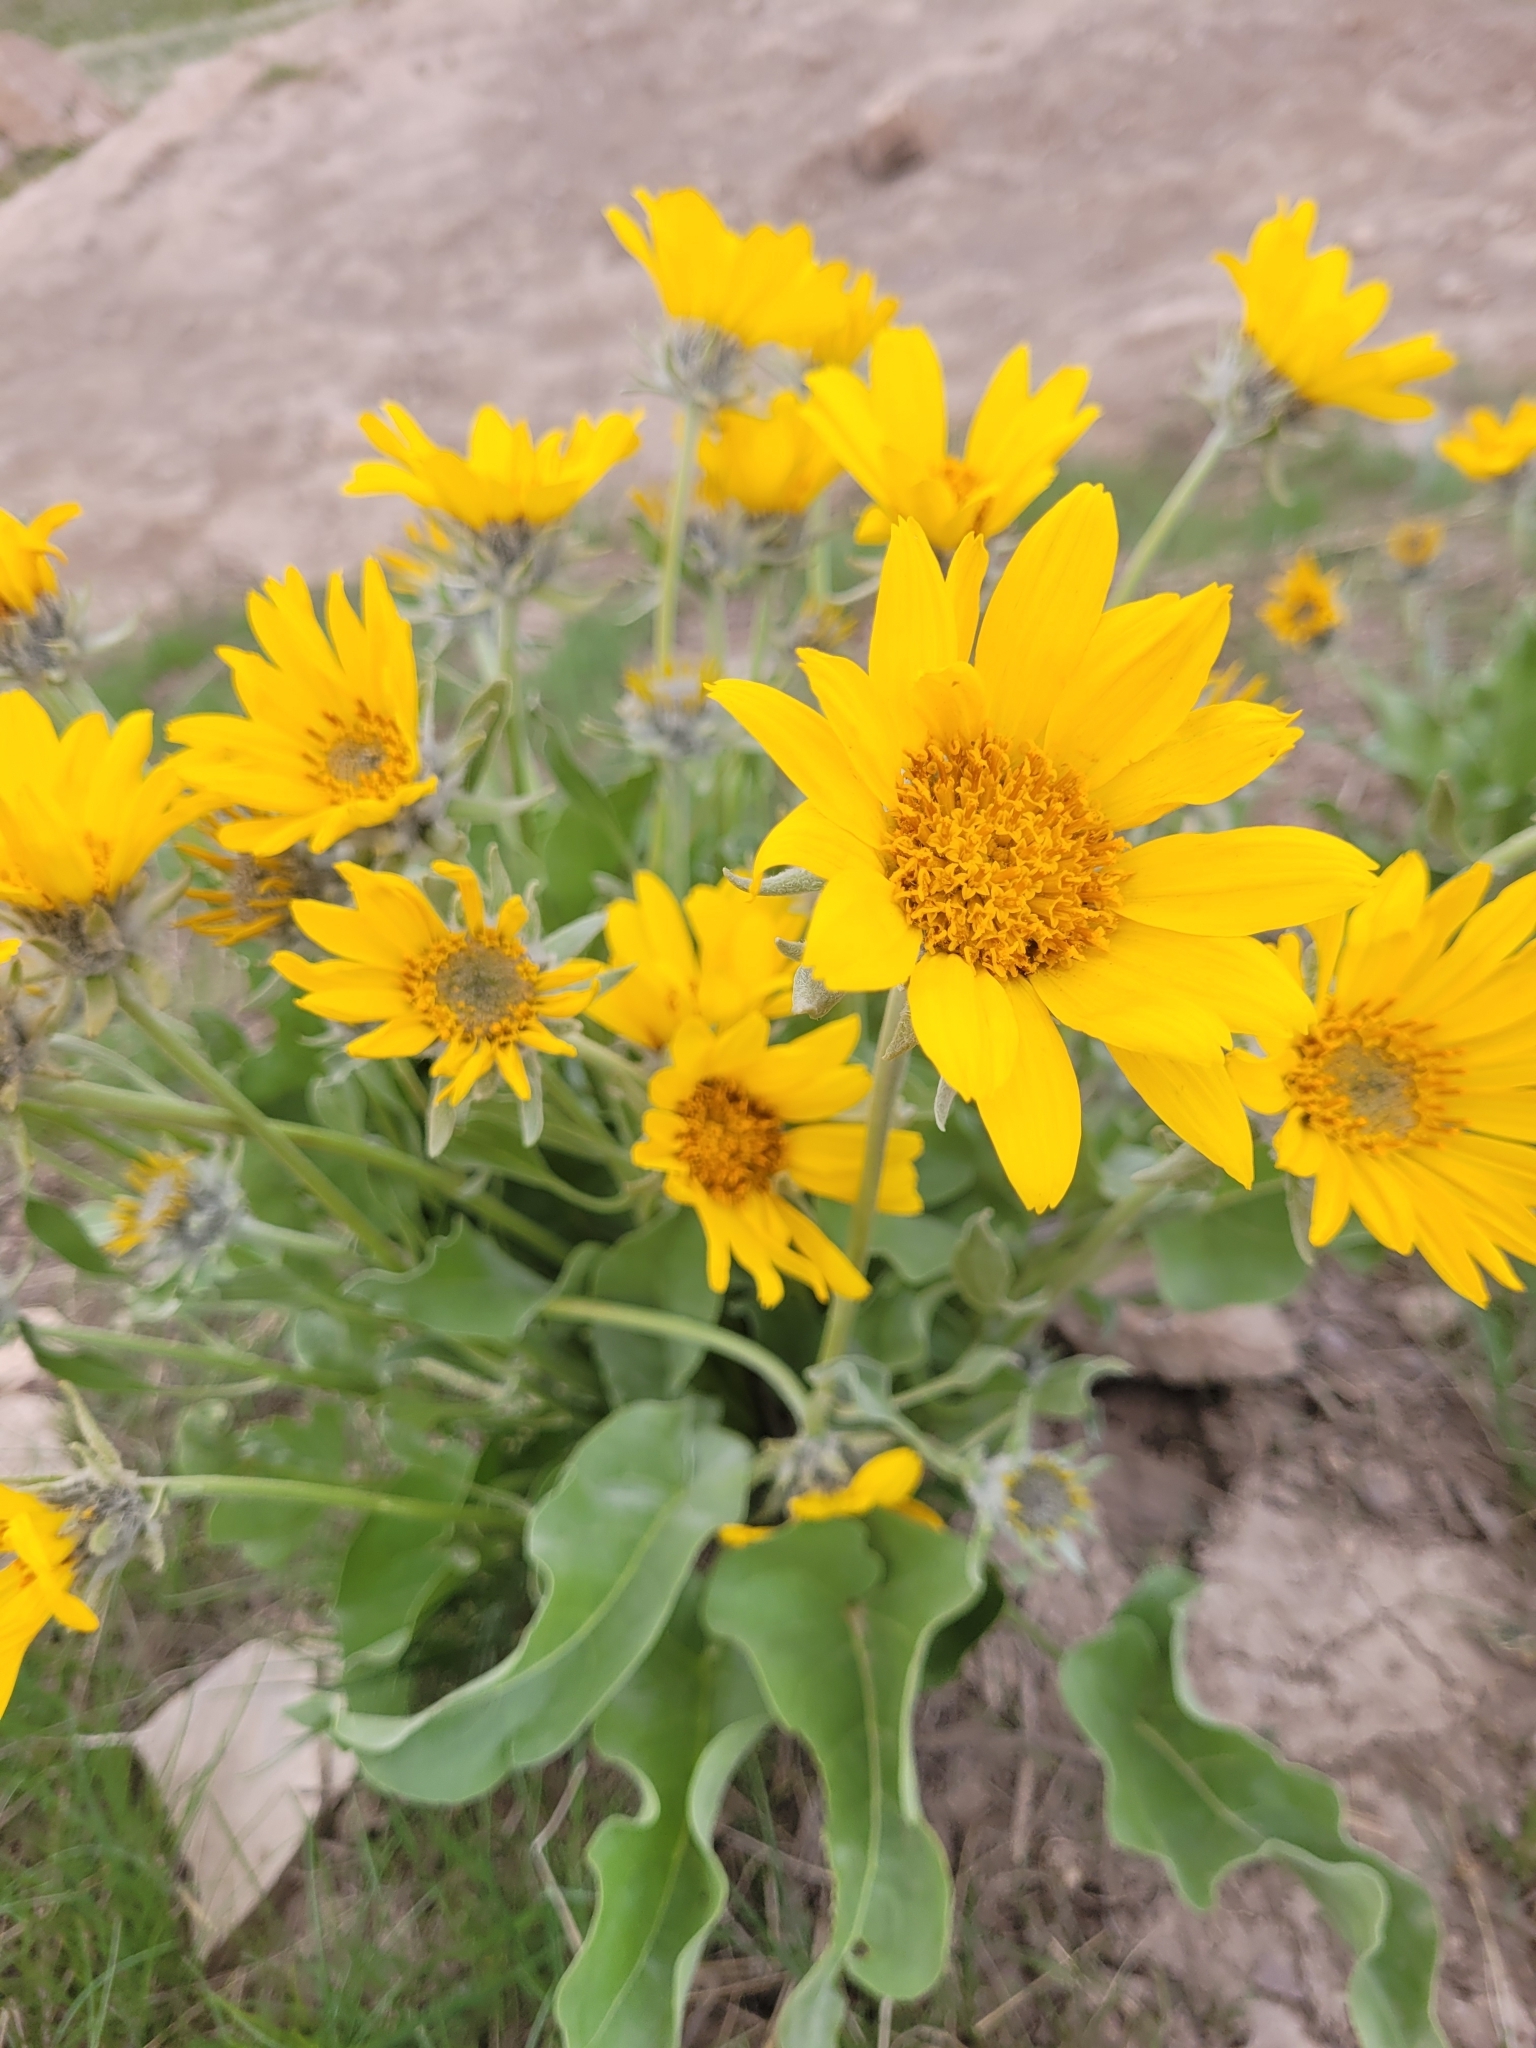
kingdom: Plantae
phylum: Tracheophyta
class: Magnoliopsida
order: Asterales
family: Asteraceae
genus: Wyethia
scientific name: Wyethia sagittata
